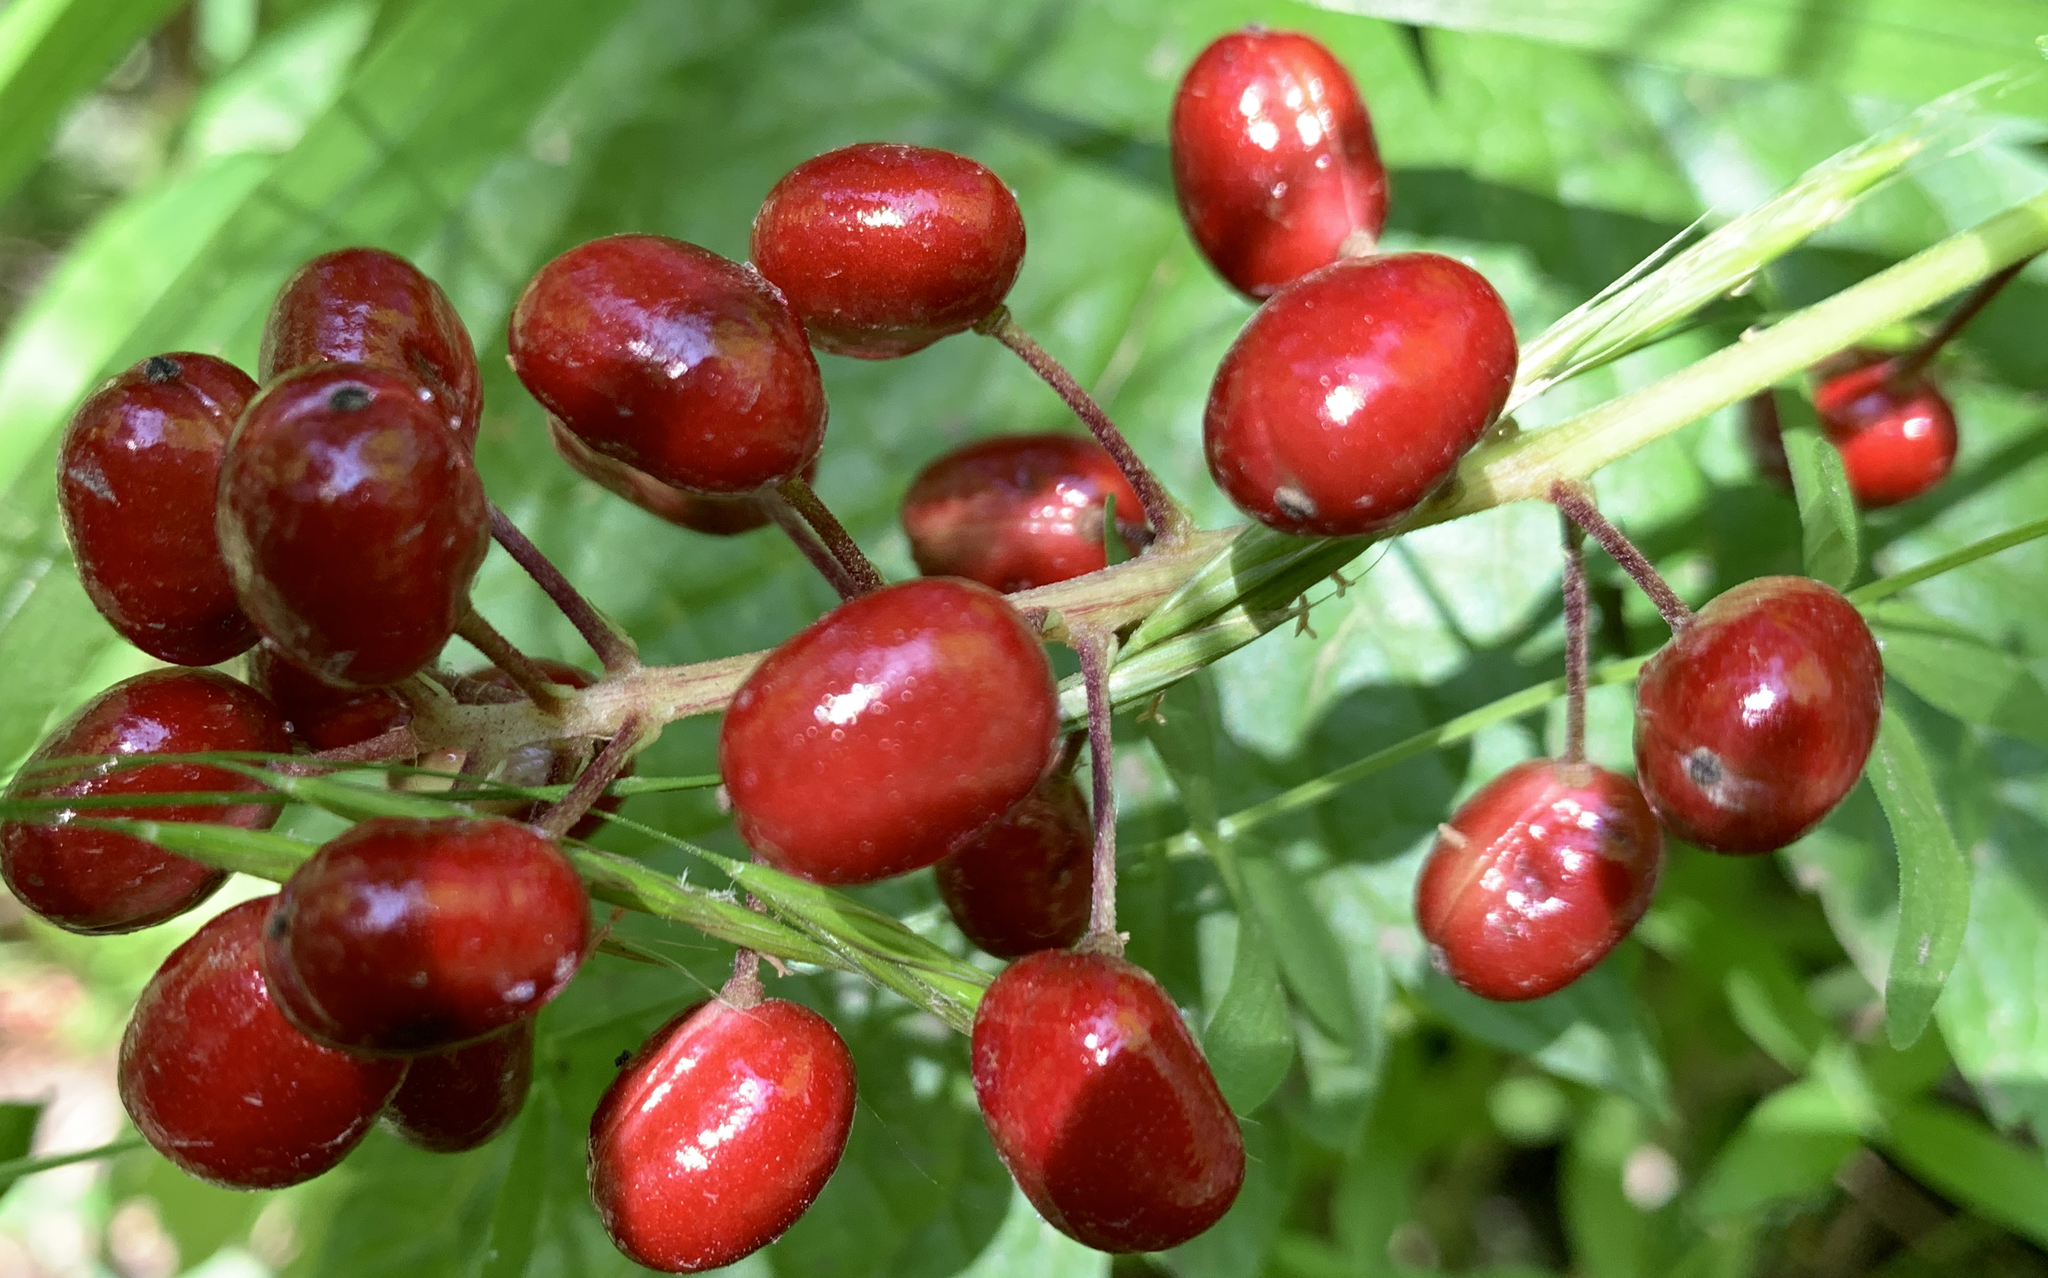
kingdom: Plantae
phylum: Tracheophyta
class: Magnoliopsida
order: Ranunculales
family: Ranunculaceae
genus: Actaea
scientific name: Actaea rubra
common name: Red baneberry
